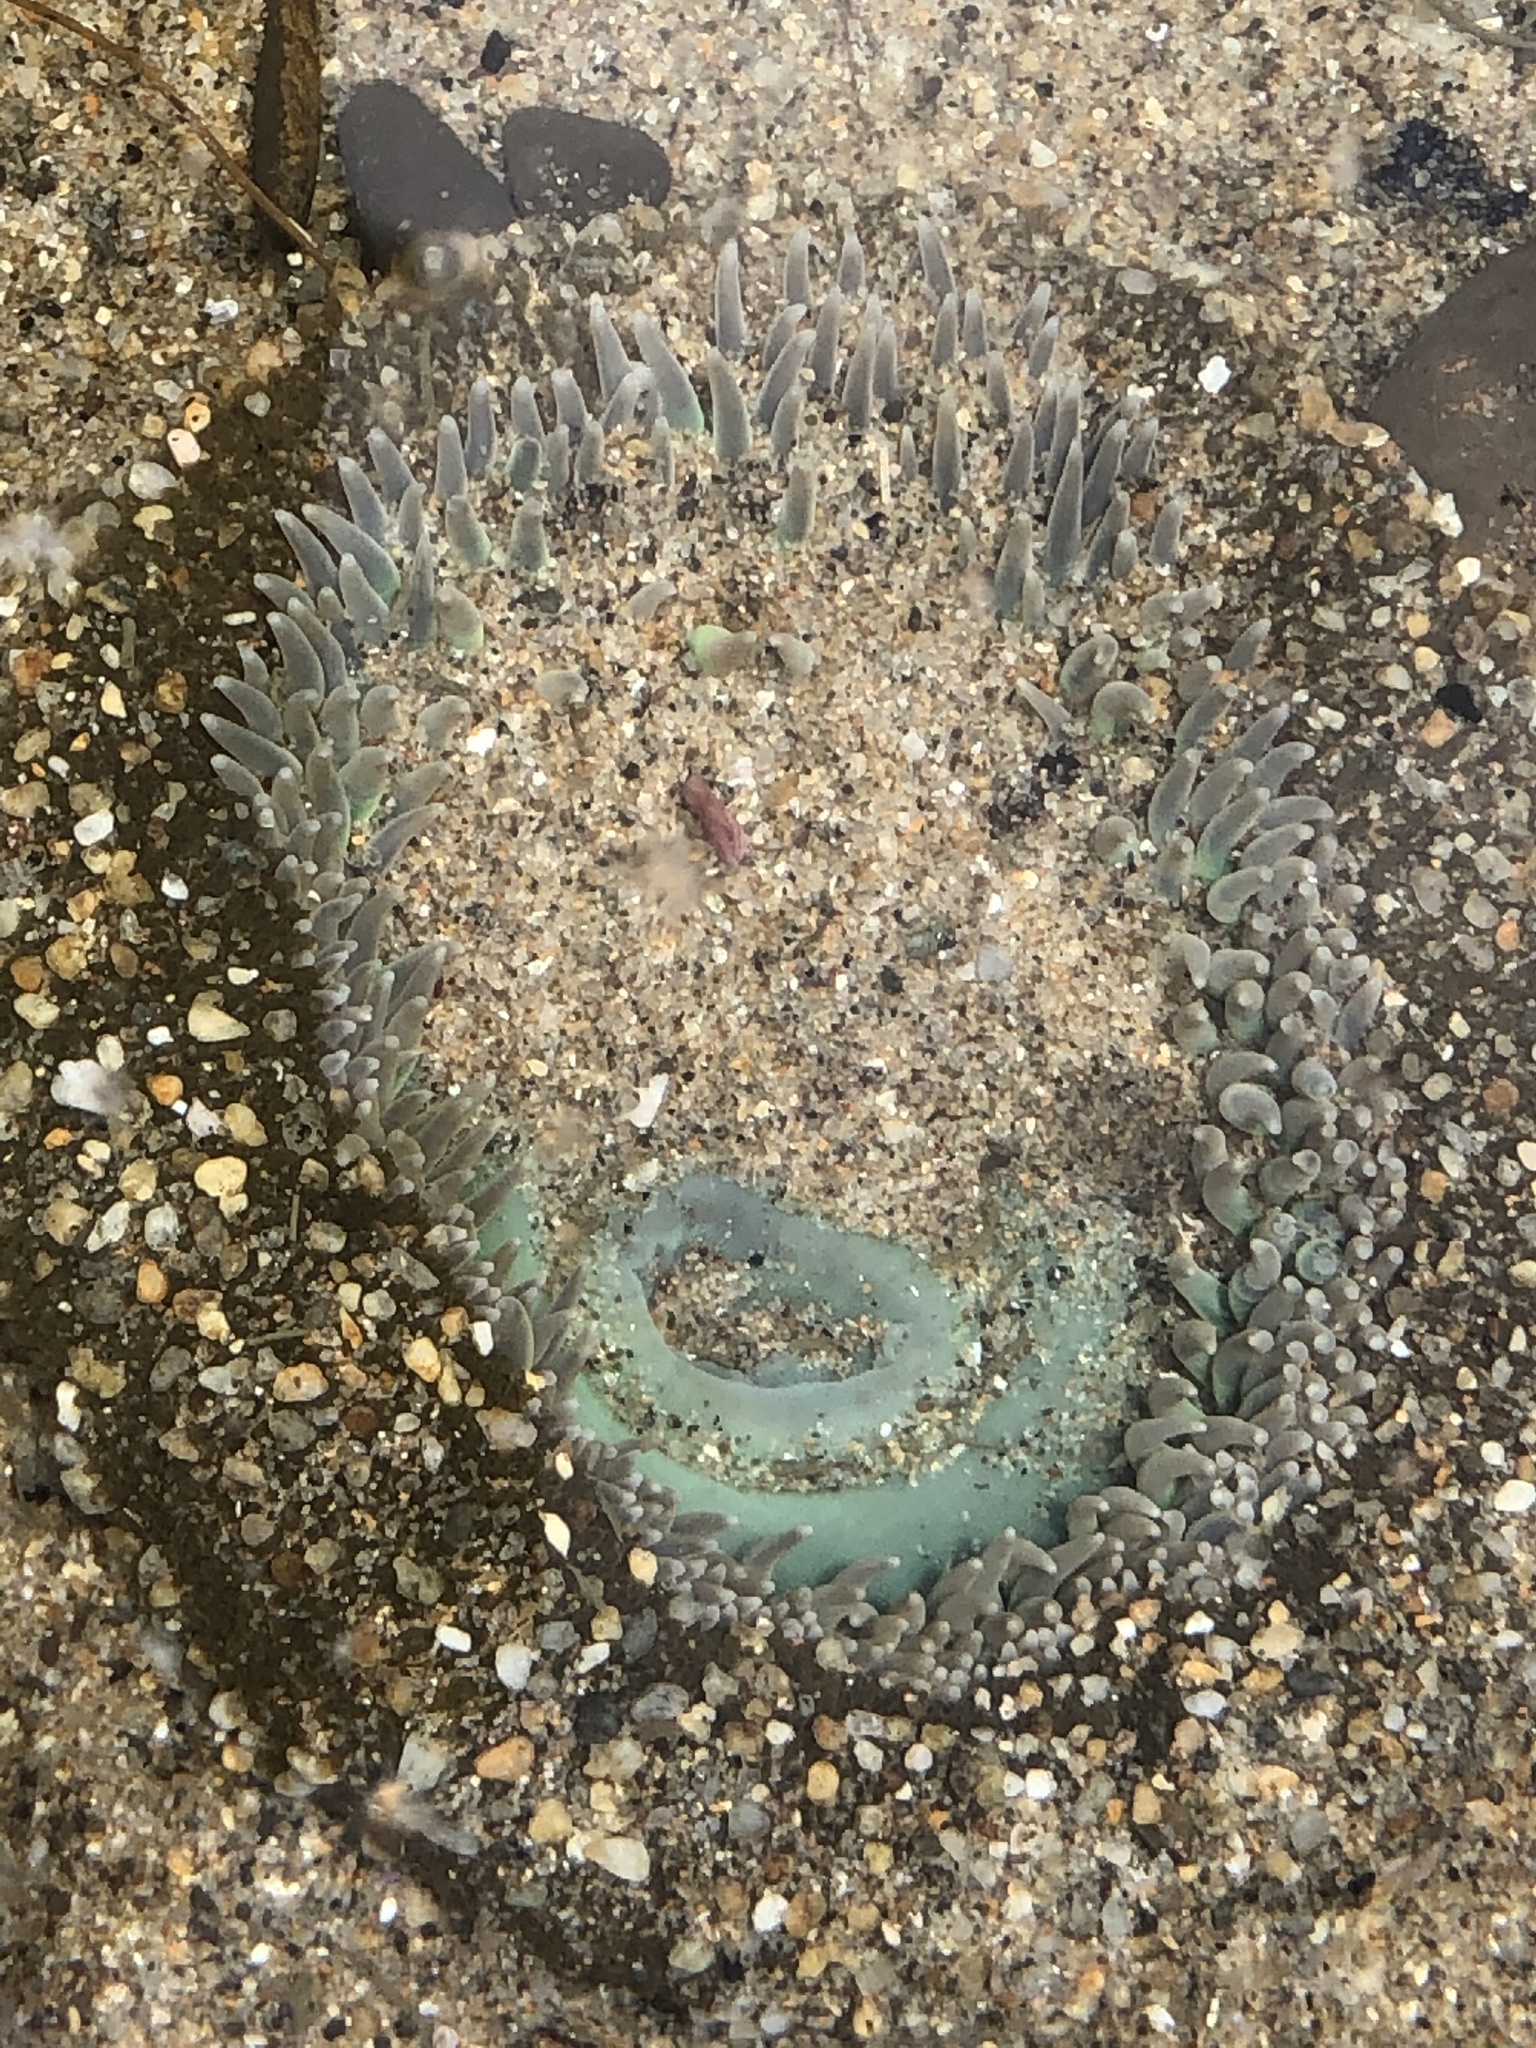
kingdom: Animalia
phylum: Cnidaria
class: Anthozoa
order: Actiniaria
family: Actiniidae
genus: Anthopleura
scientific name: Anthopleura xanthogrammica
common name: Giant green anemone
